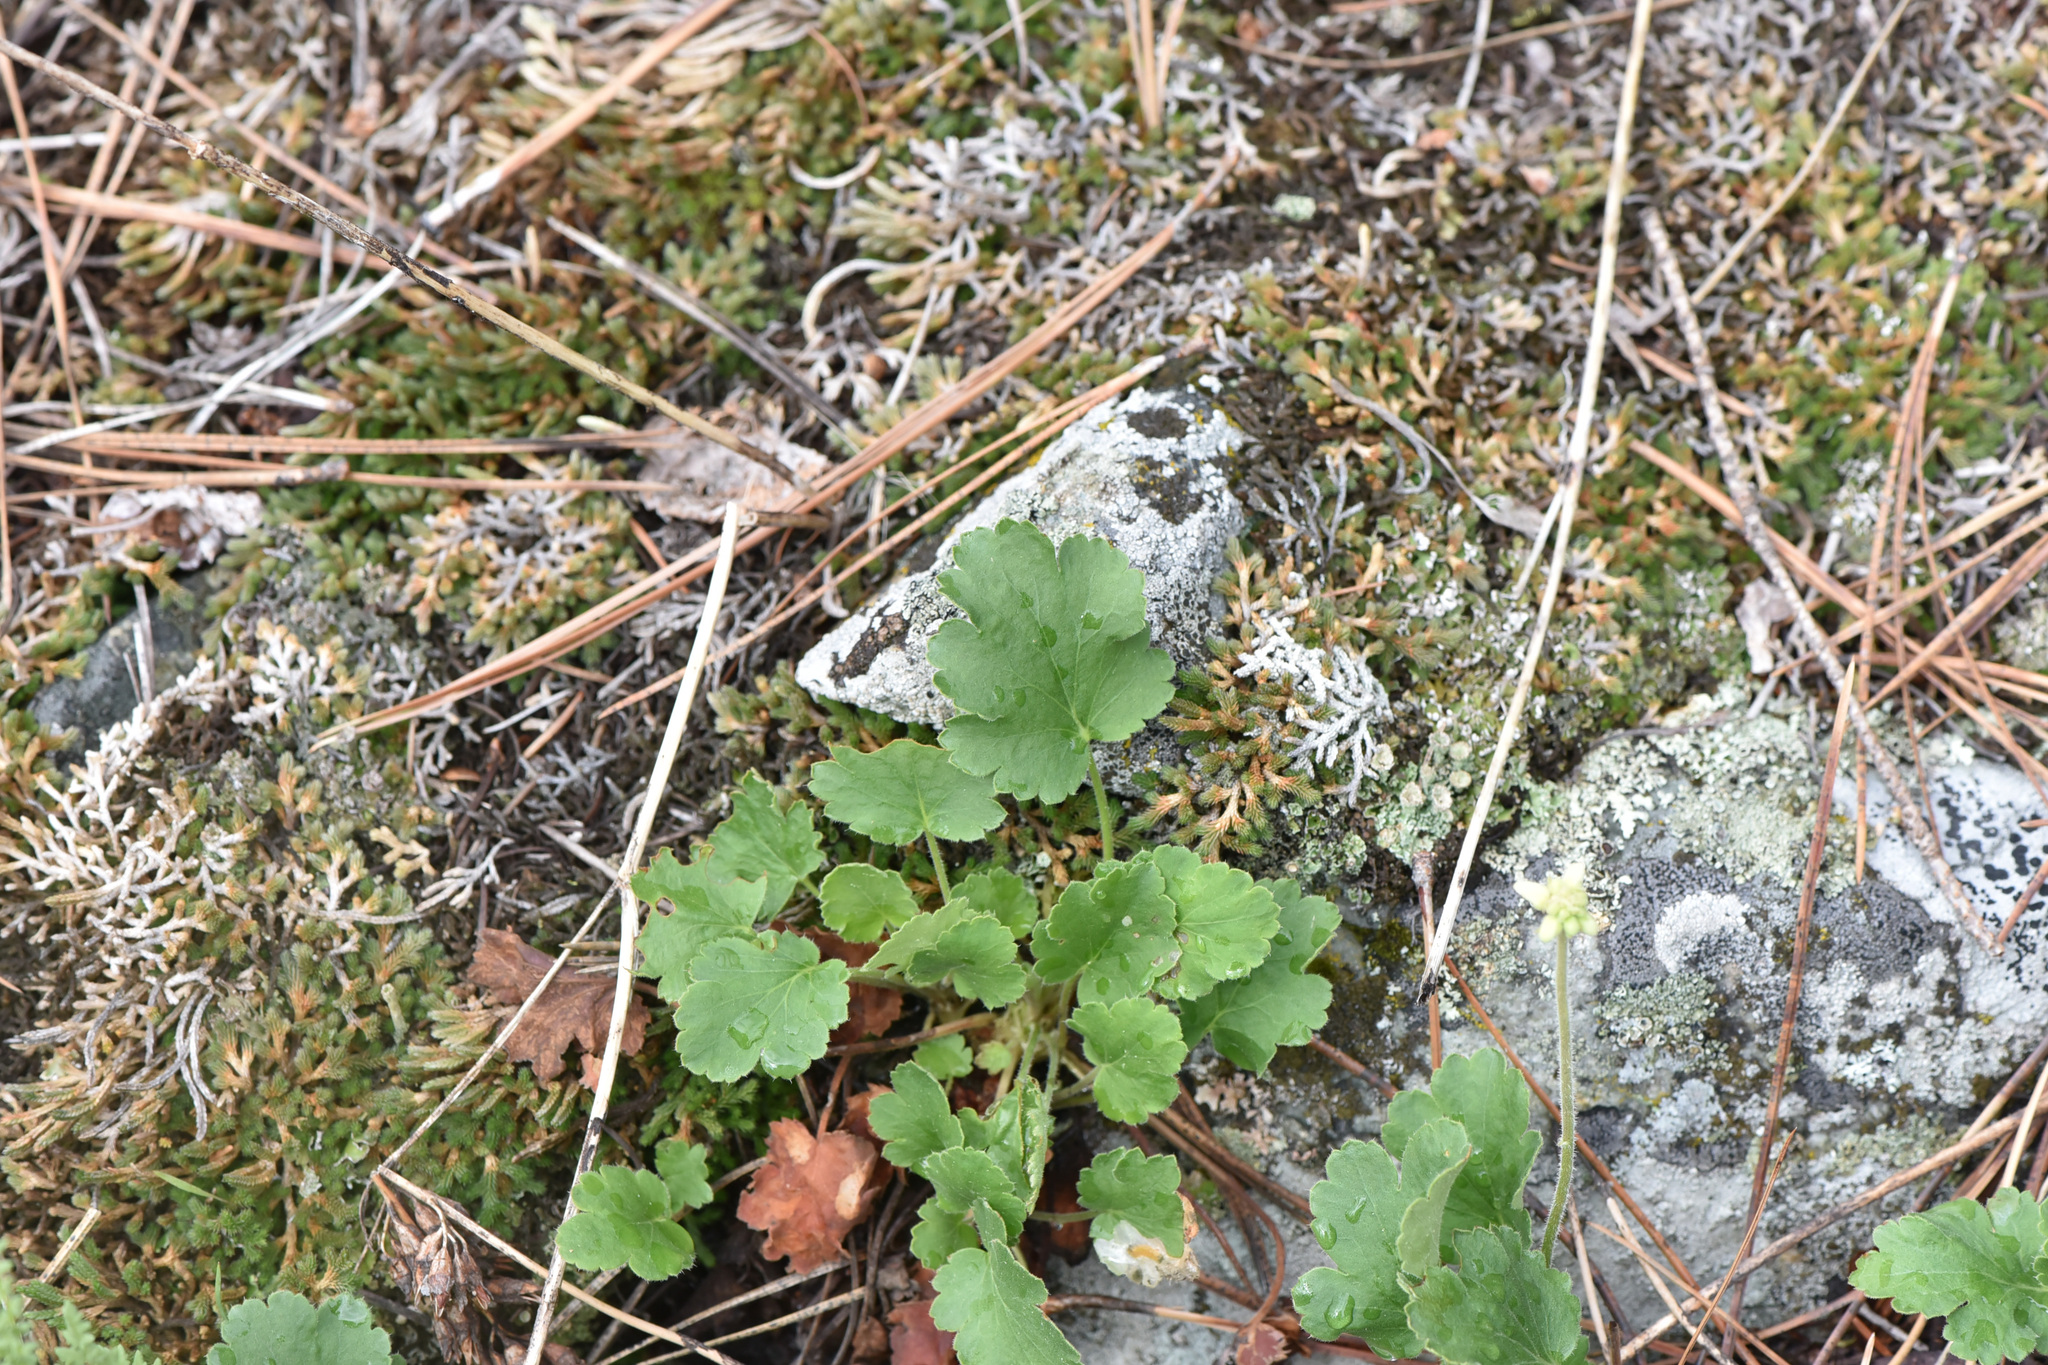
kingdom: Plantae
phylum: Tracheophyta
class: Magnoliopsida
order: Saxifragales
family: Saxifragaceae
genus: Heuchera
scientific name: Heuchera cylindrica
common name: Mat alumroot
